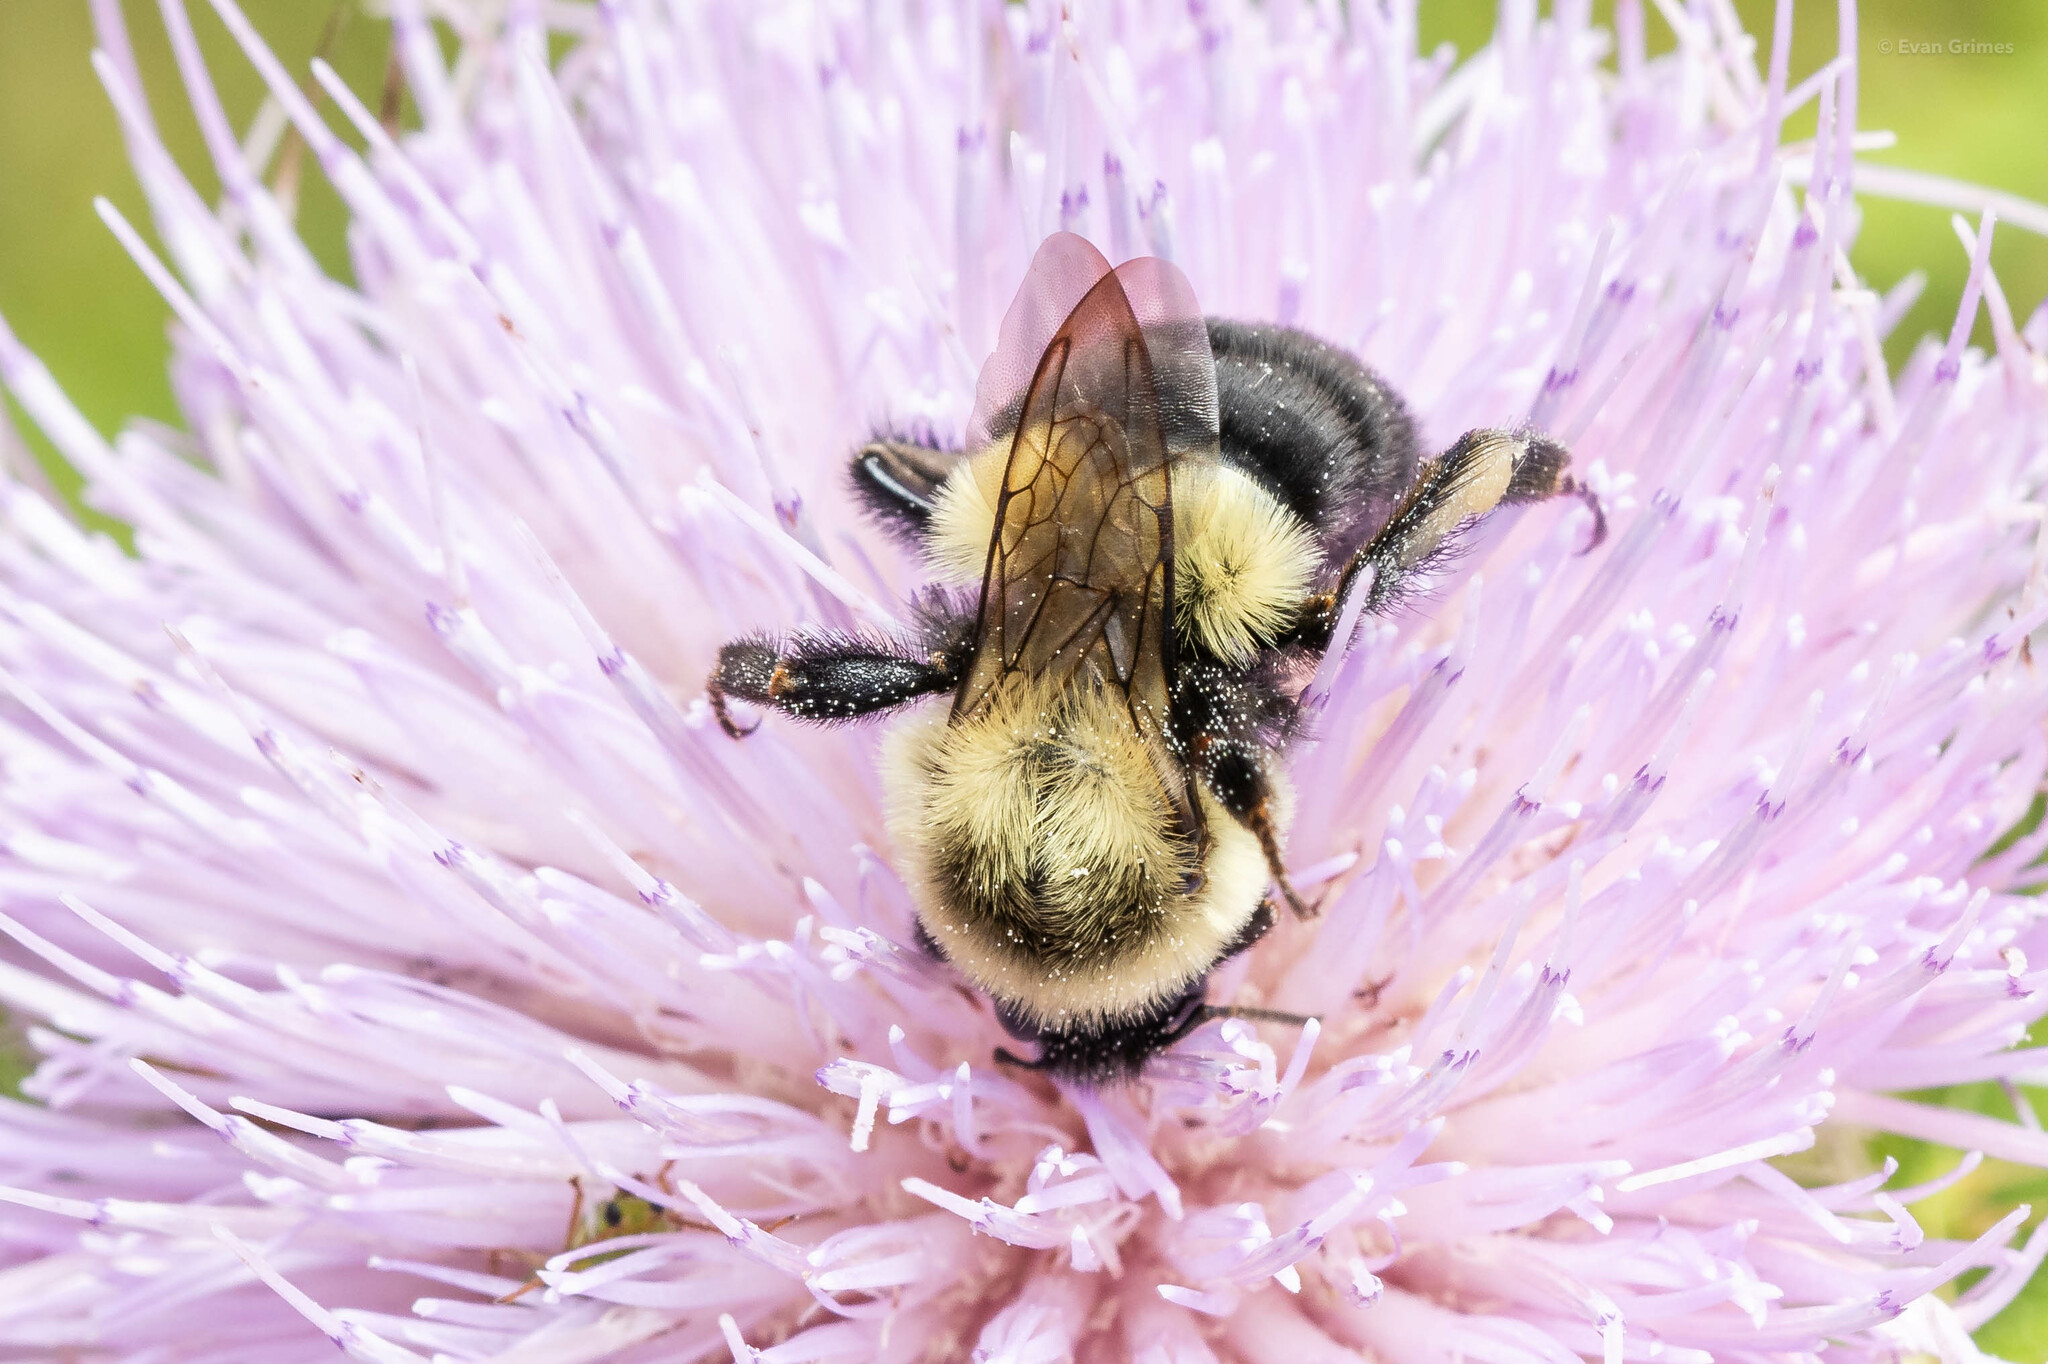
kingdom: Animalia
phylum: Arthropoda
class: Insecta
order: Hymenoptera
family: Apidae
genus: Bombus
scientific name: Bombus impatiens
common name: Common eastern bumble bee
